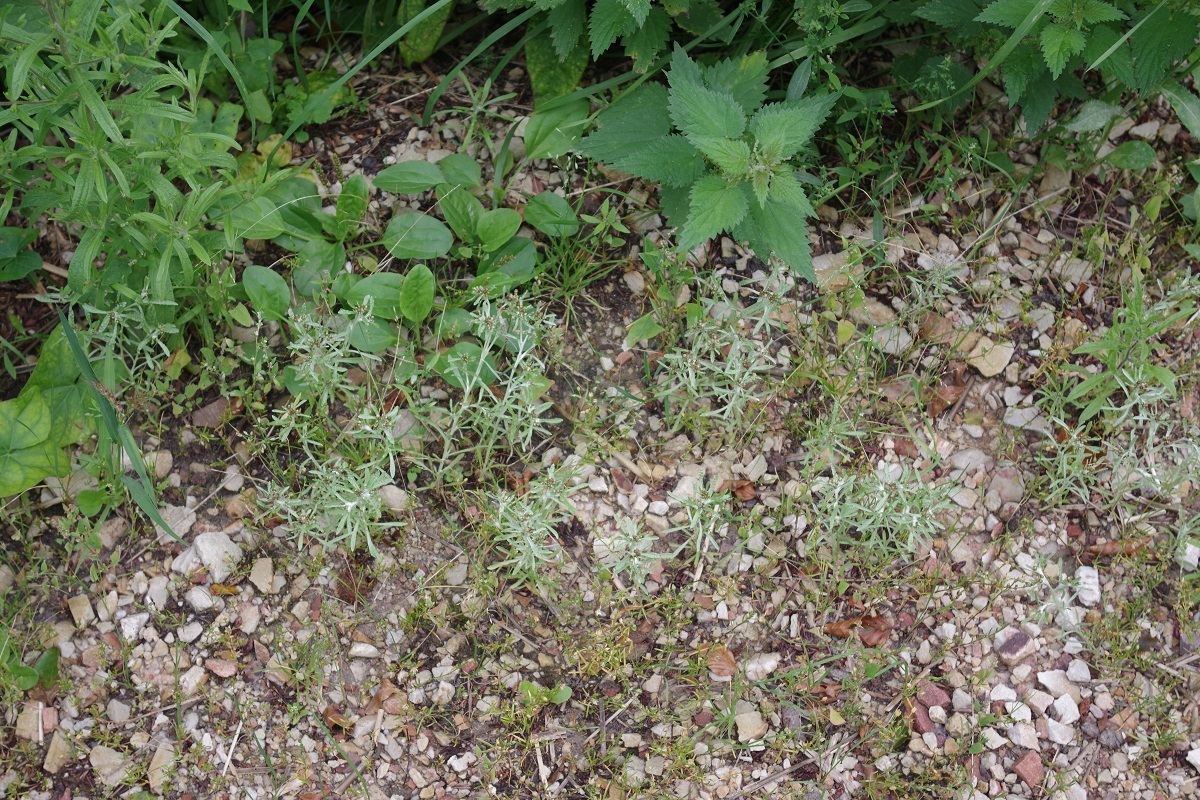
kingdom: Plantae
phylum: Tracheophyta
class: Magnoliopsida
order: Asterales
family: Asteraceae
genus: Gnaphalium
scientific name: Gnaphalium uliginosum
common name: Marsh cudweed
